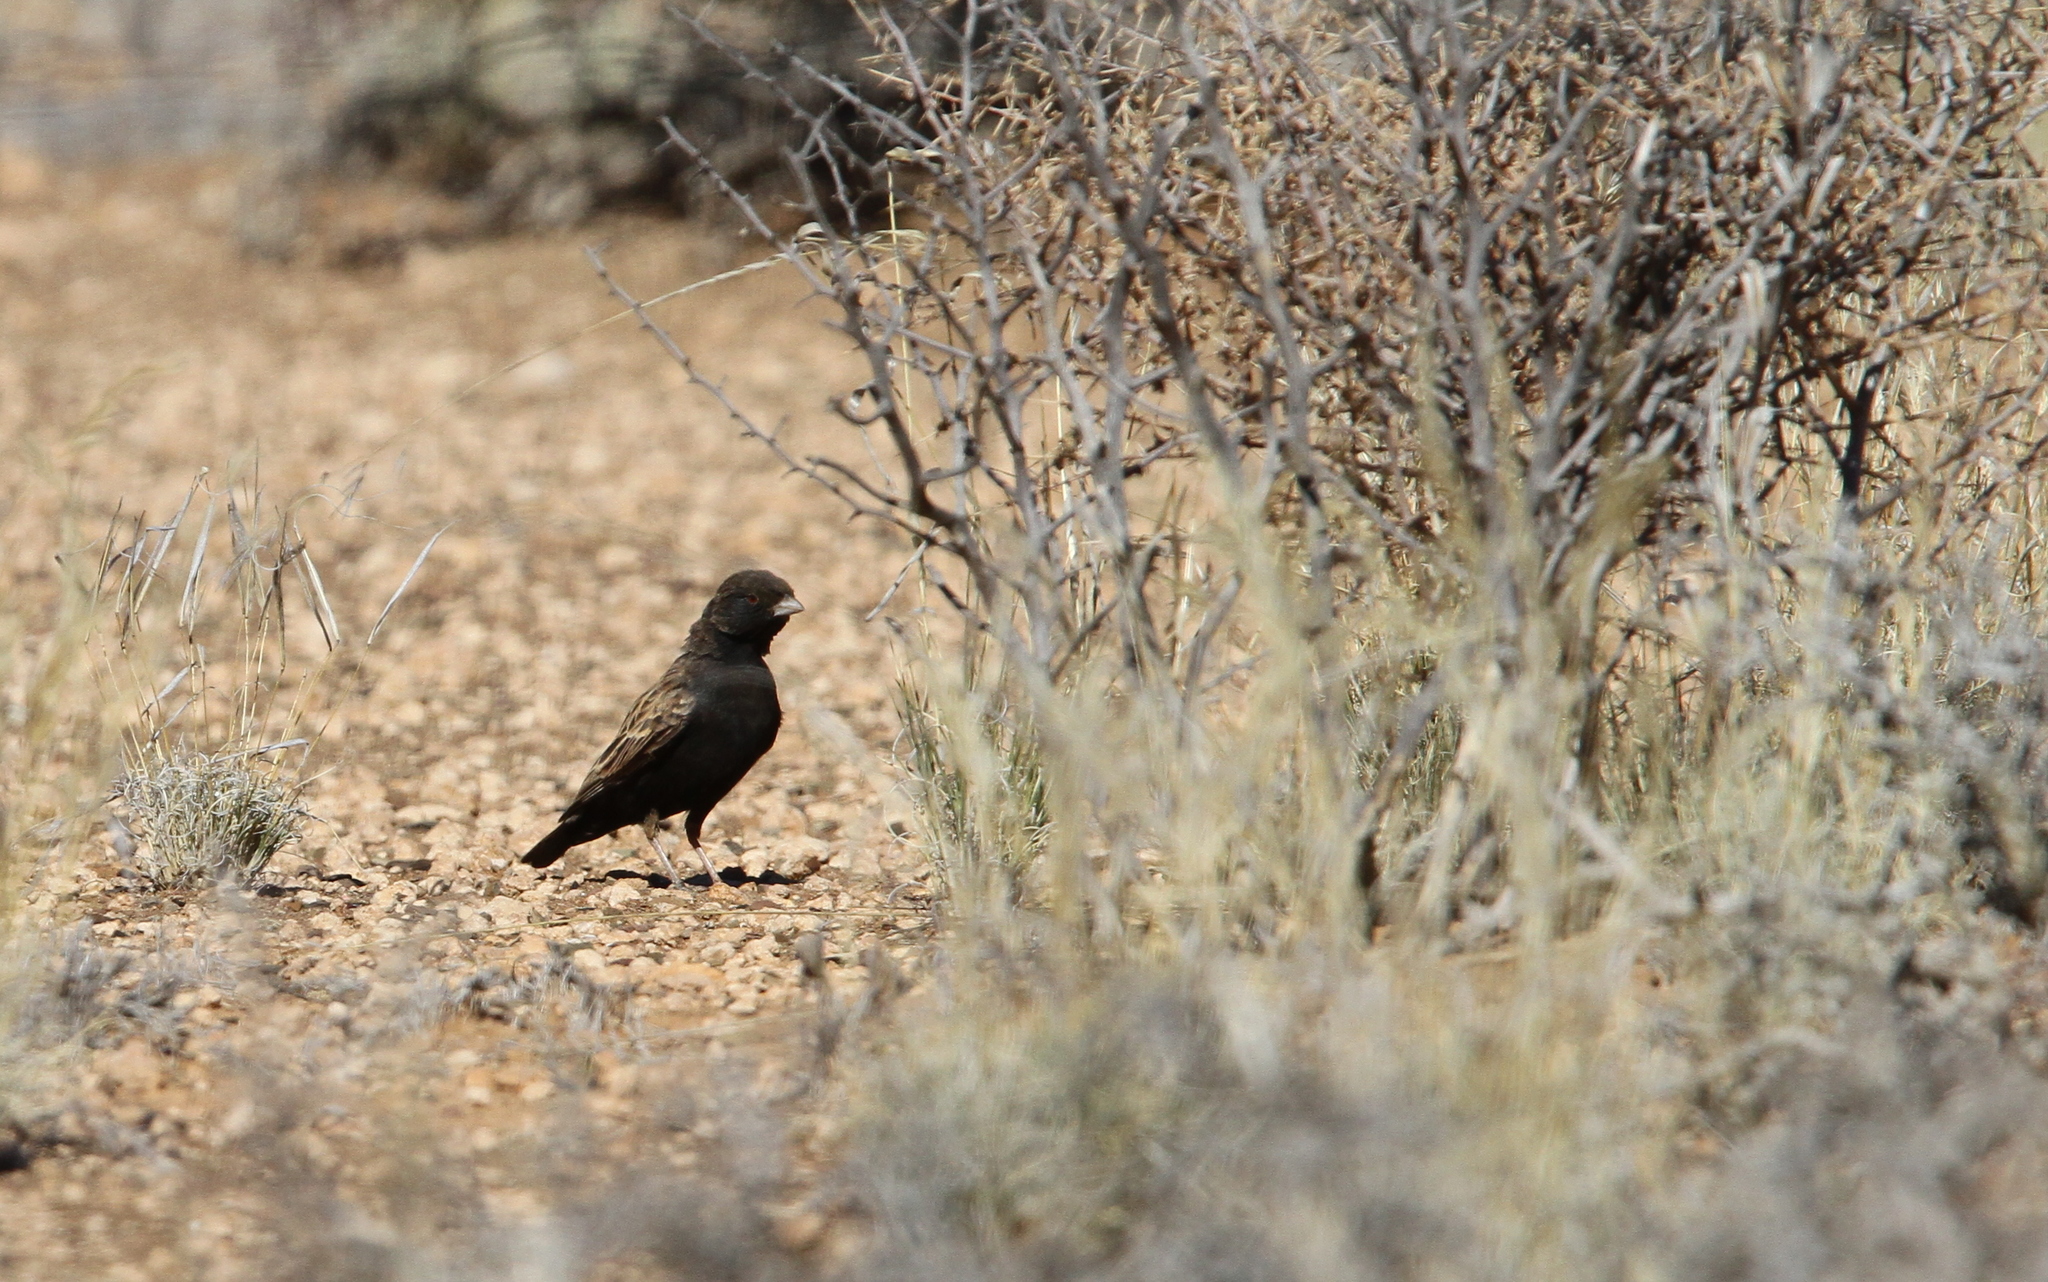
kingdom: Animalia
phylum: Chordata
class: Aves
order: Passeriformes
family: Alaudidae
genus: Eremopterix
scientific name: Eremopterix australis
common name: Black-eared sparrow-lark
